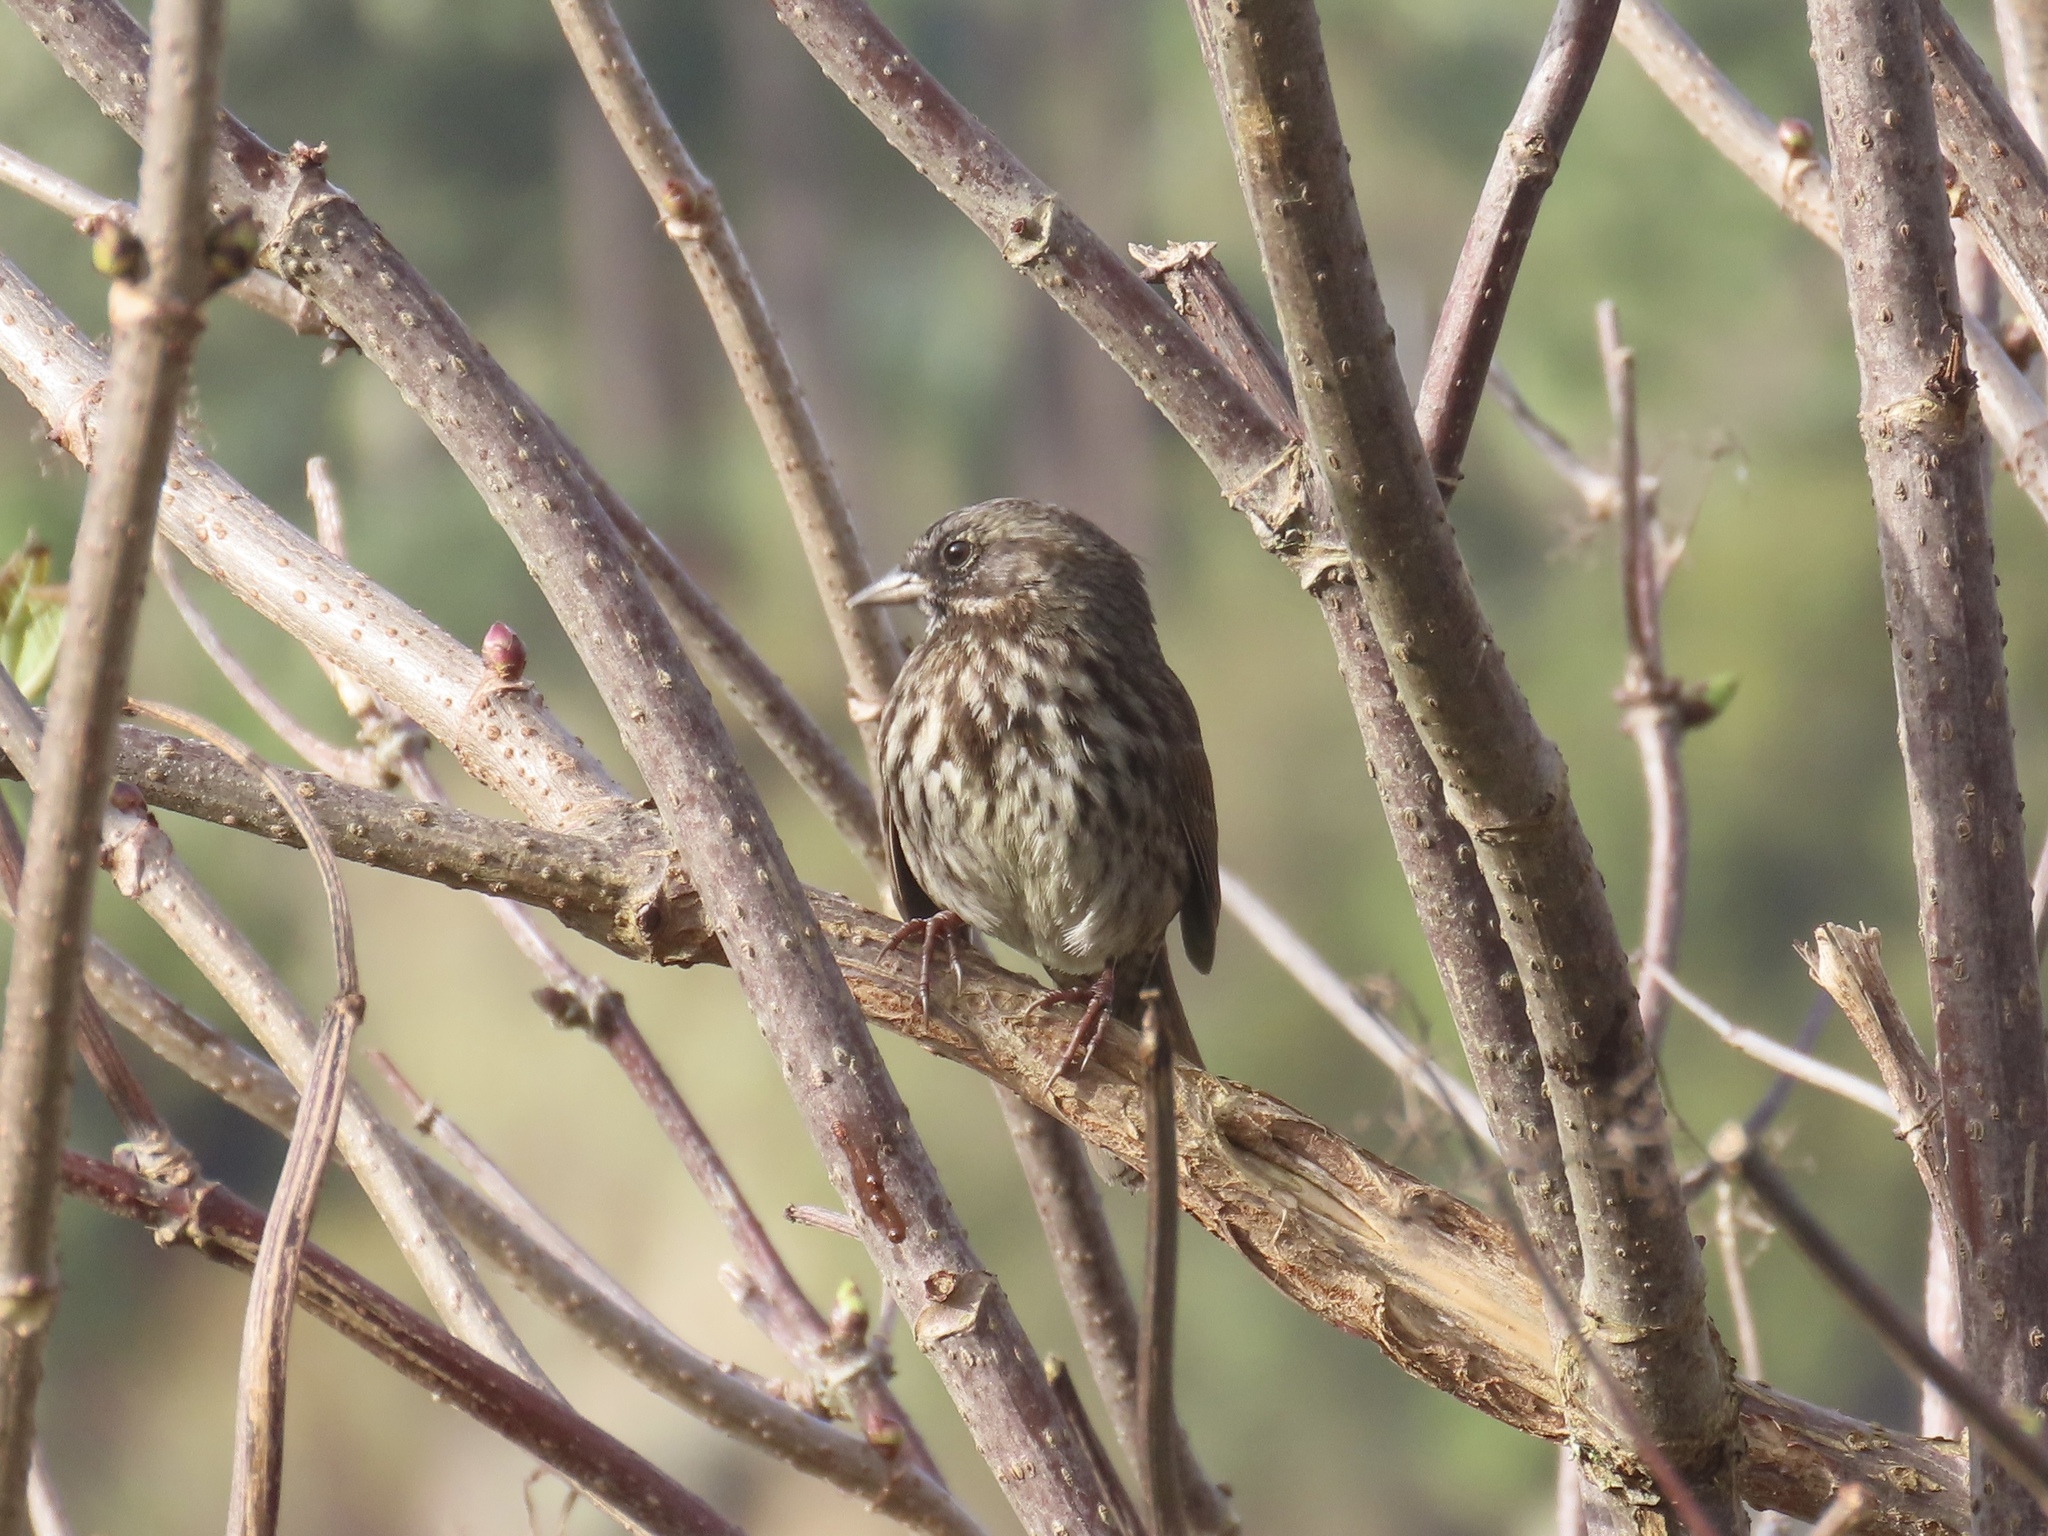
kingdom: Animalia
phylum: Chordata
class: Aves
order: Passeriformes
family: Passerellidae
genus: Melospiza
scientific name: Melospiza melodia
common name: Song sparrow
